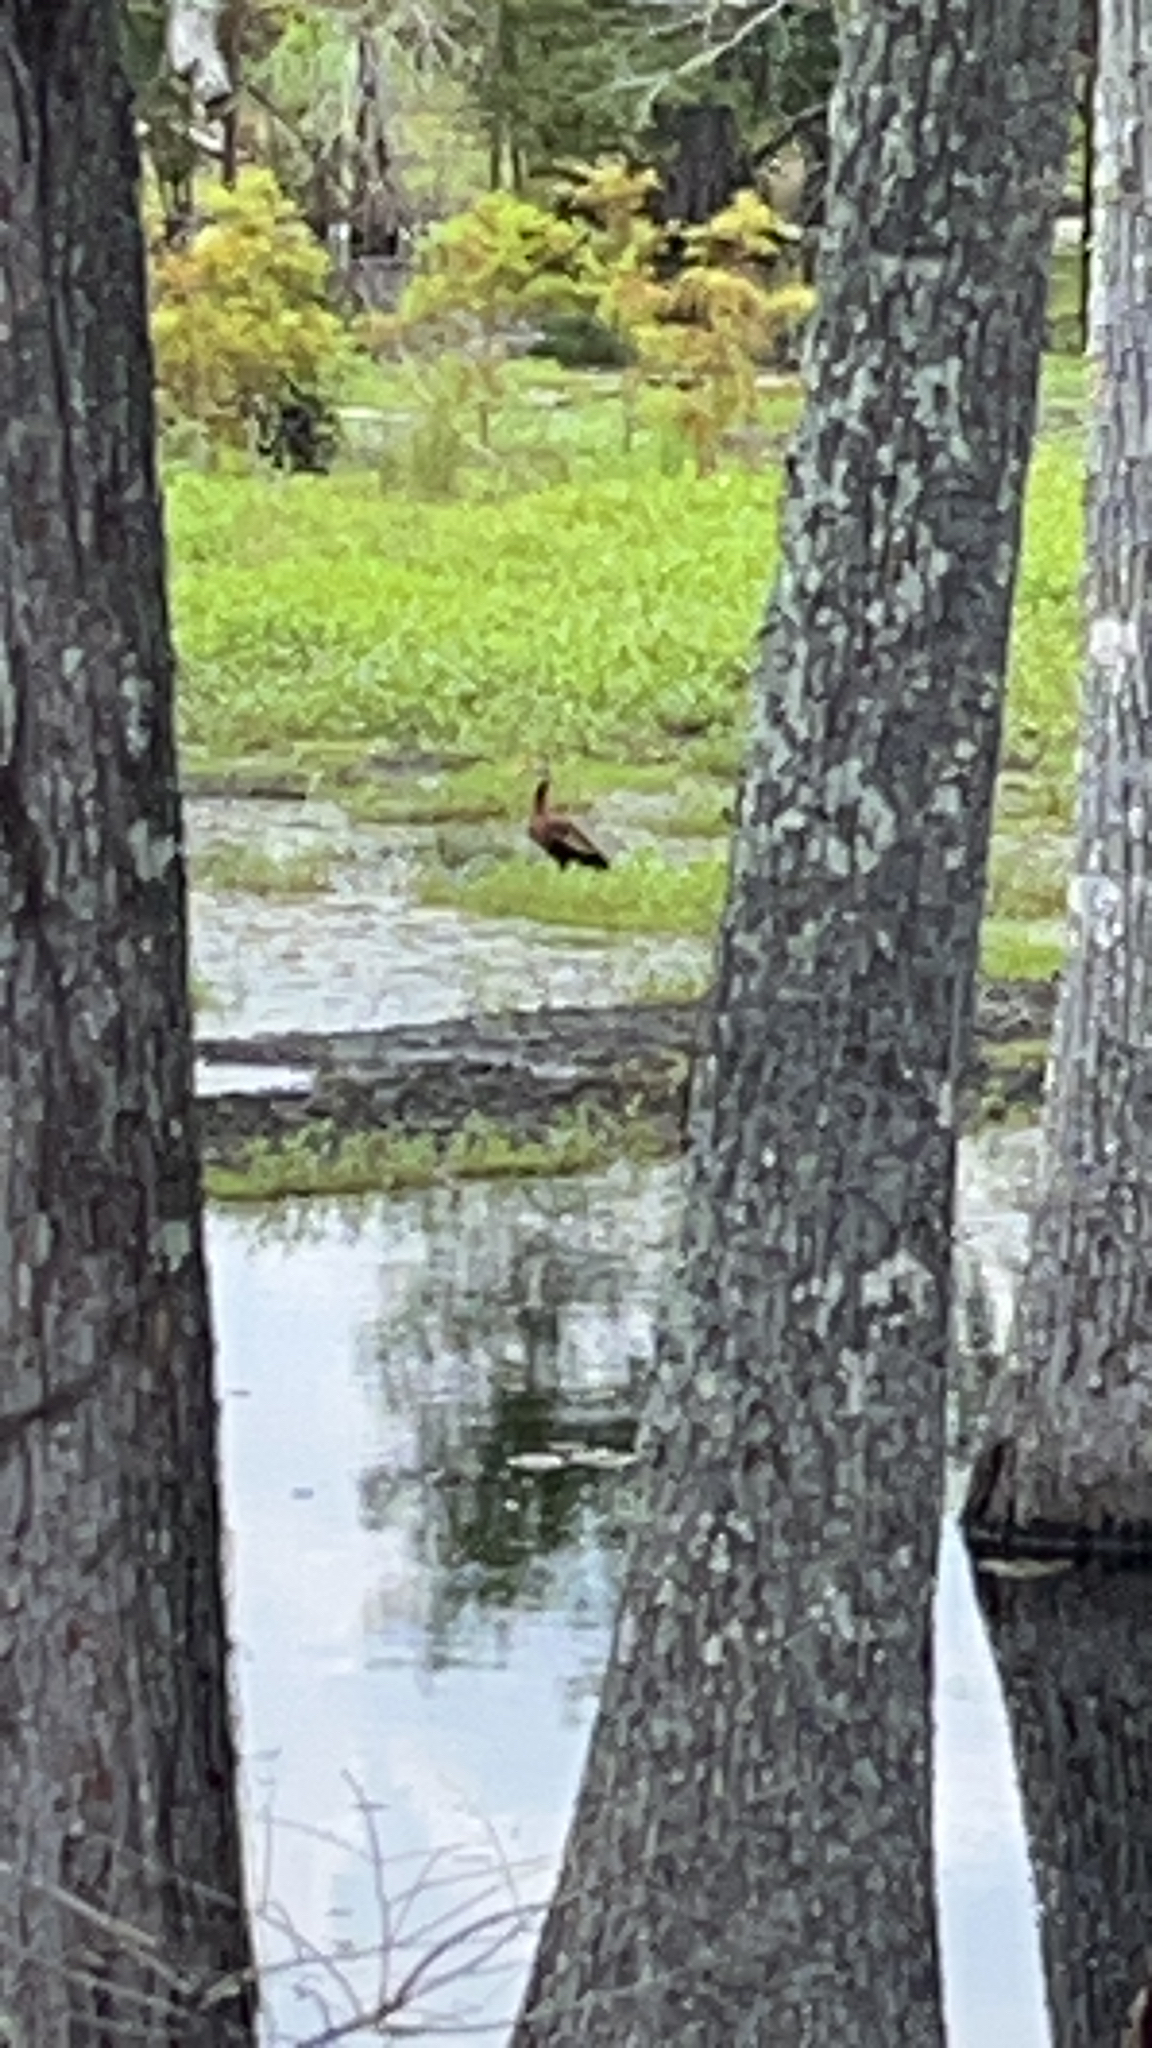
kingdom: Animalia
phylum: Chordata
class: Aves
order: Anseriformes
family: Anatidae
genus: Dendrocygna
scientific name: Dendrocygna autumnalis
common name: Black-bellied whistling duck
